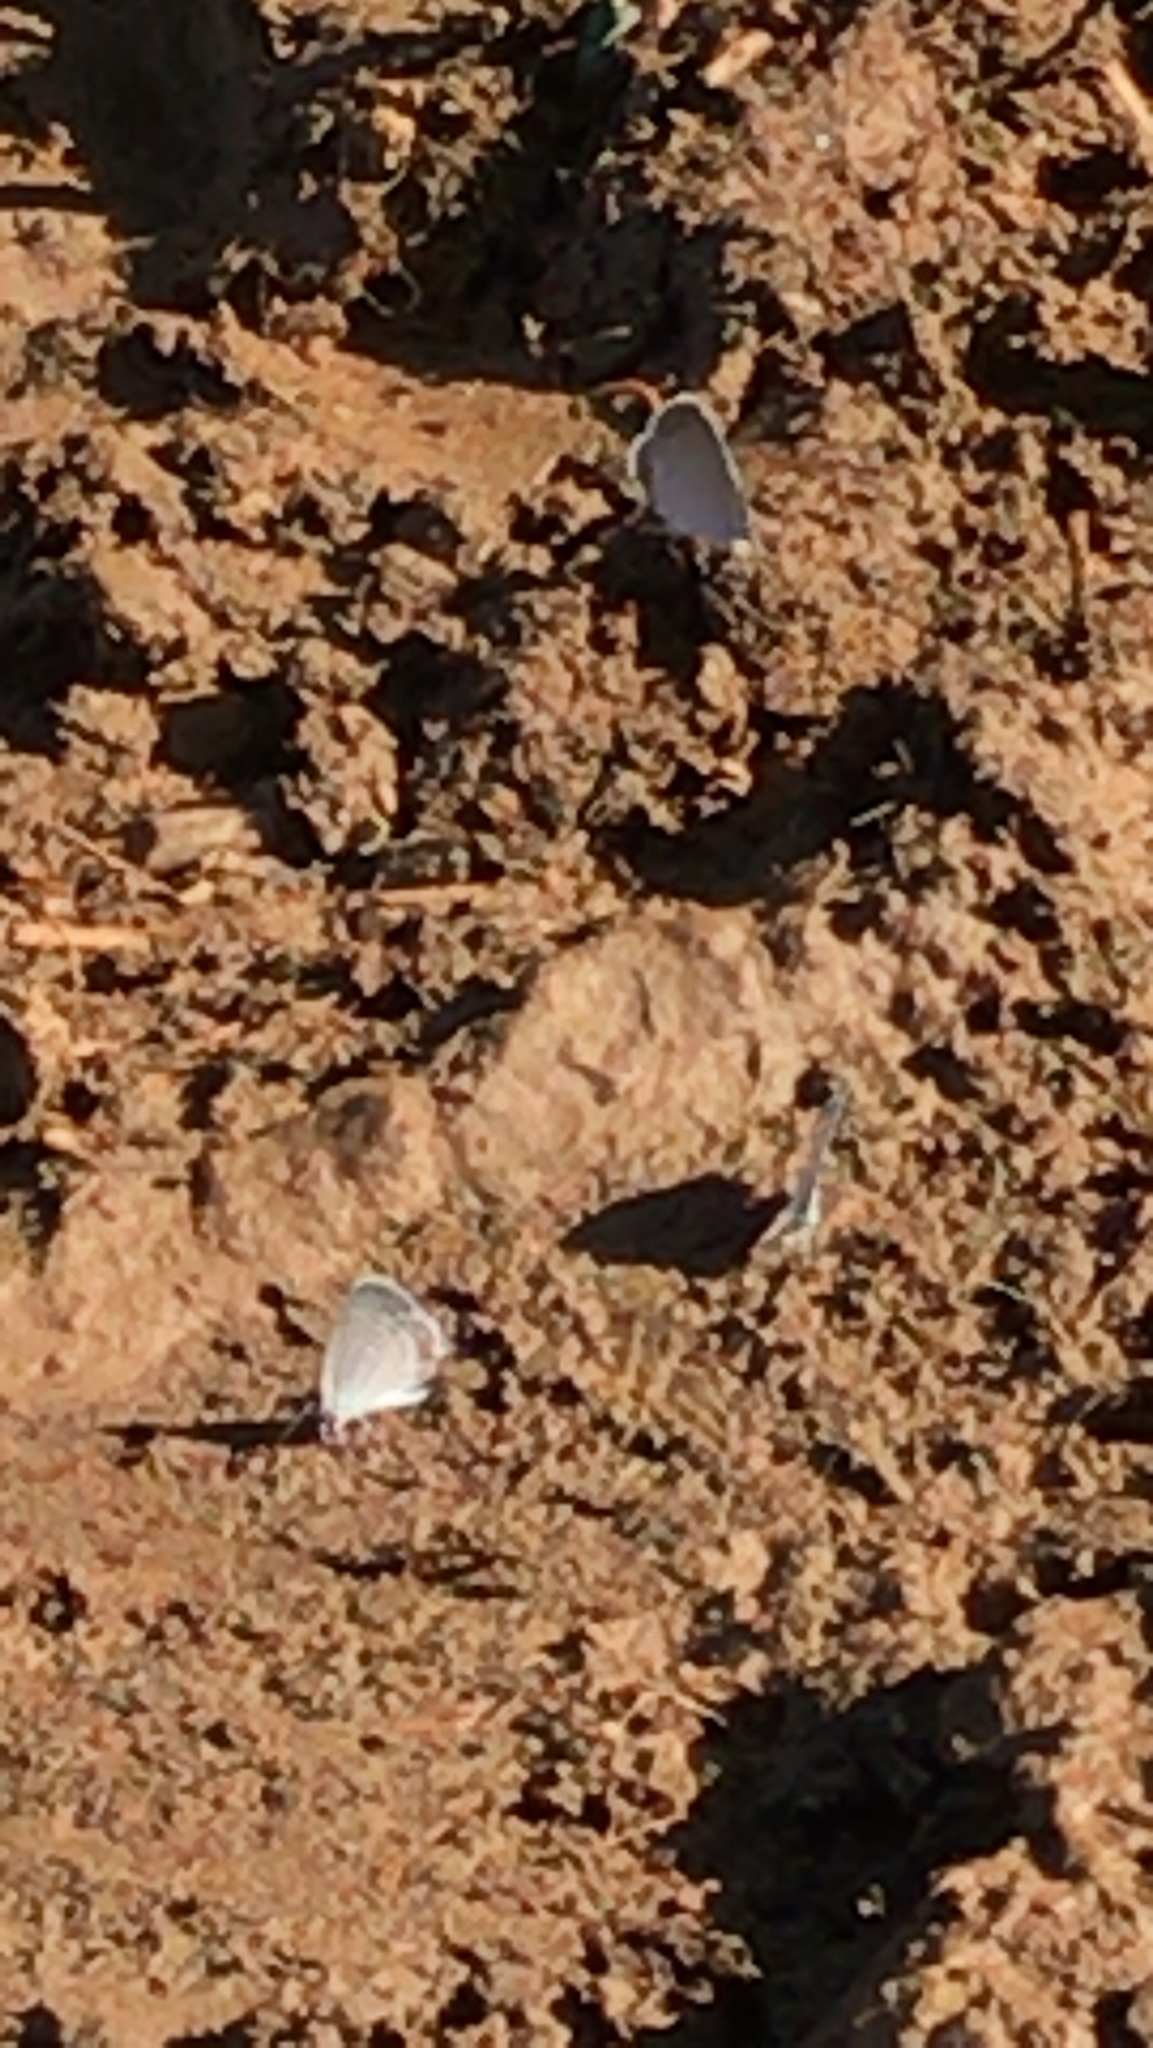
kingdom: Animalia
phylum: Arthropoda
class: Insecta
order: Lepidoptera
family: Lycaenidae
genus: Elkalyce
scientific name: Elkalyce comyntas
